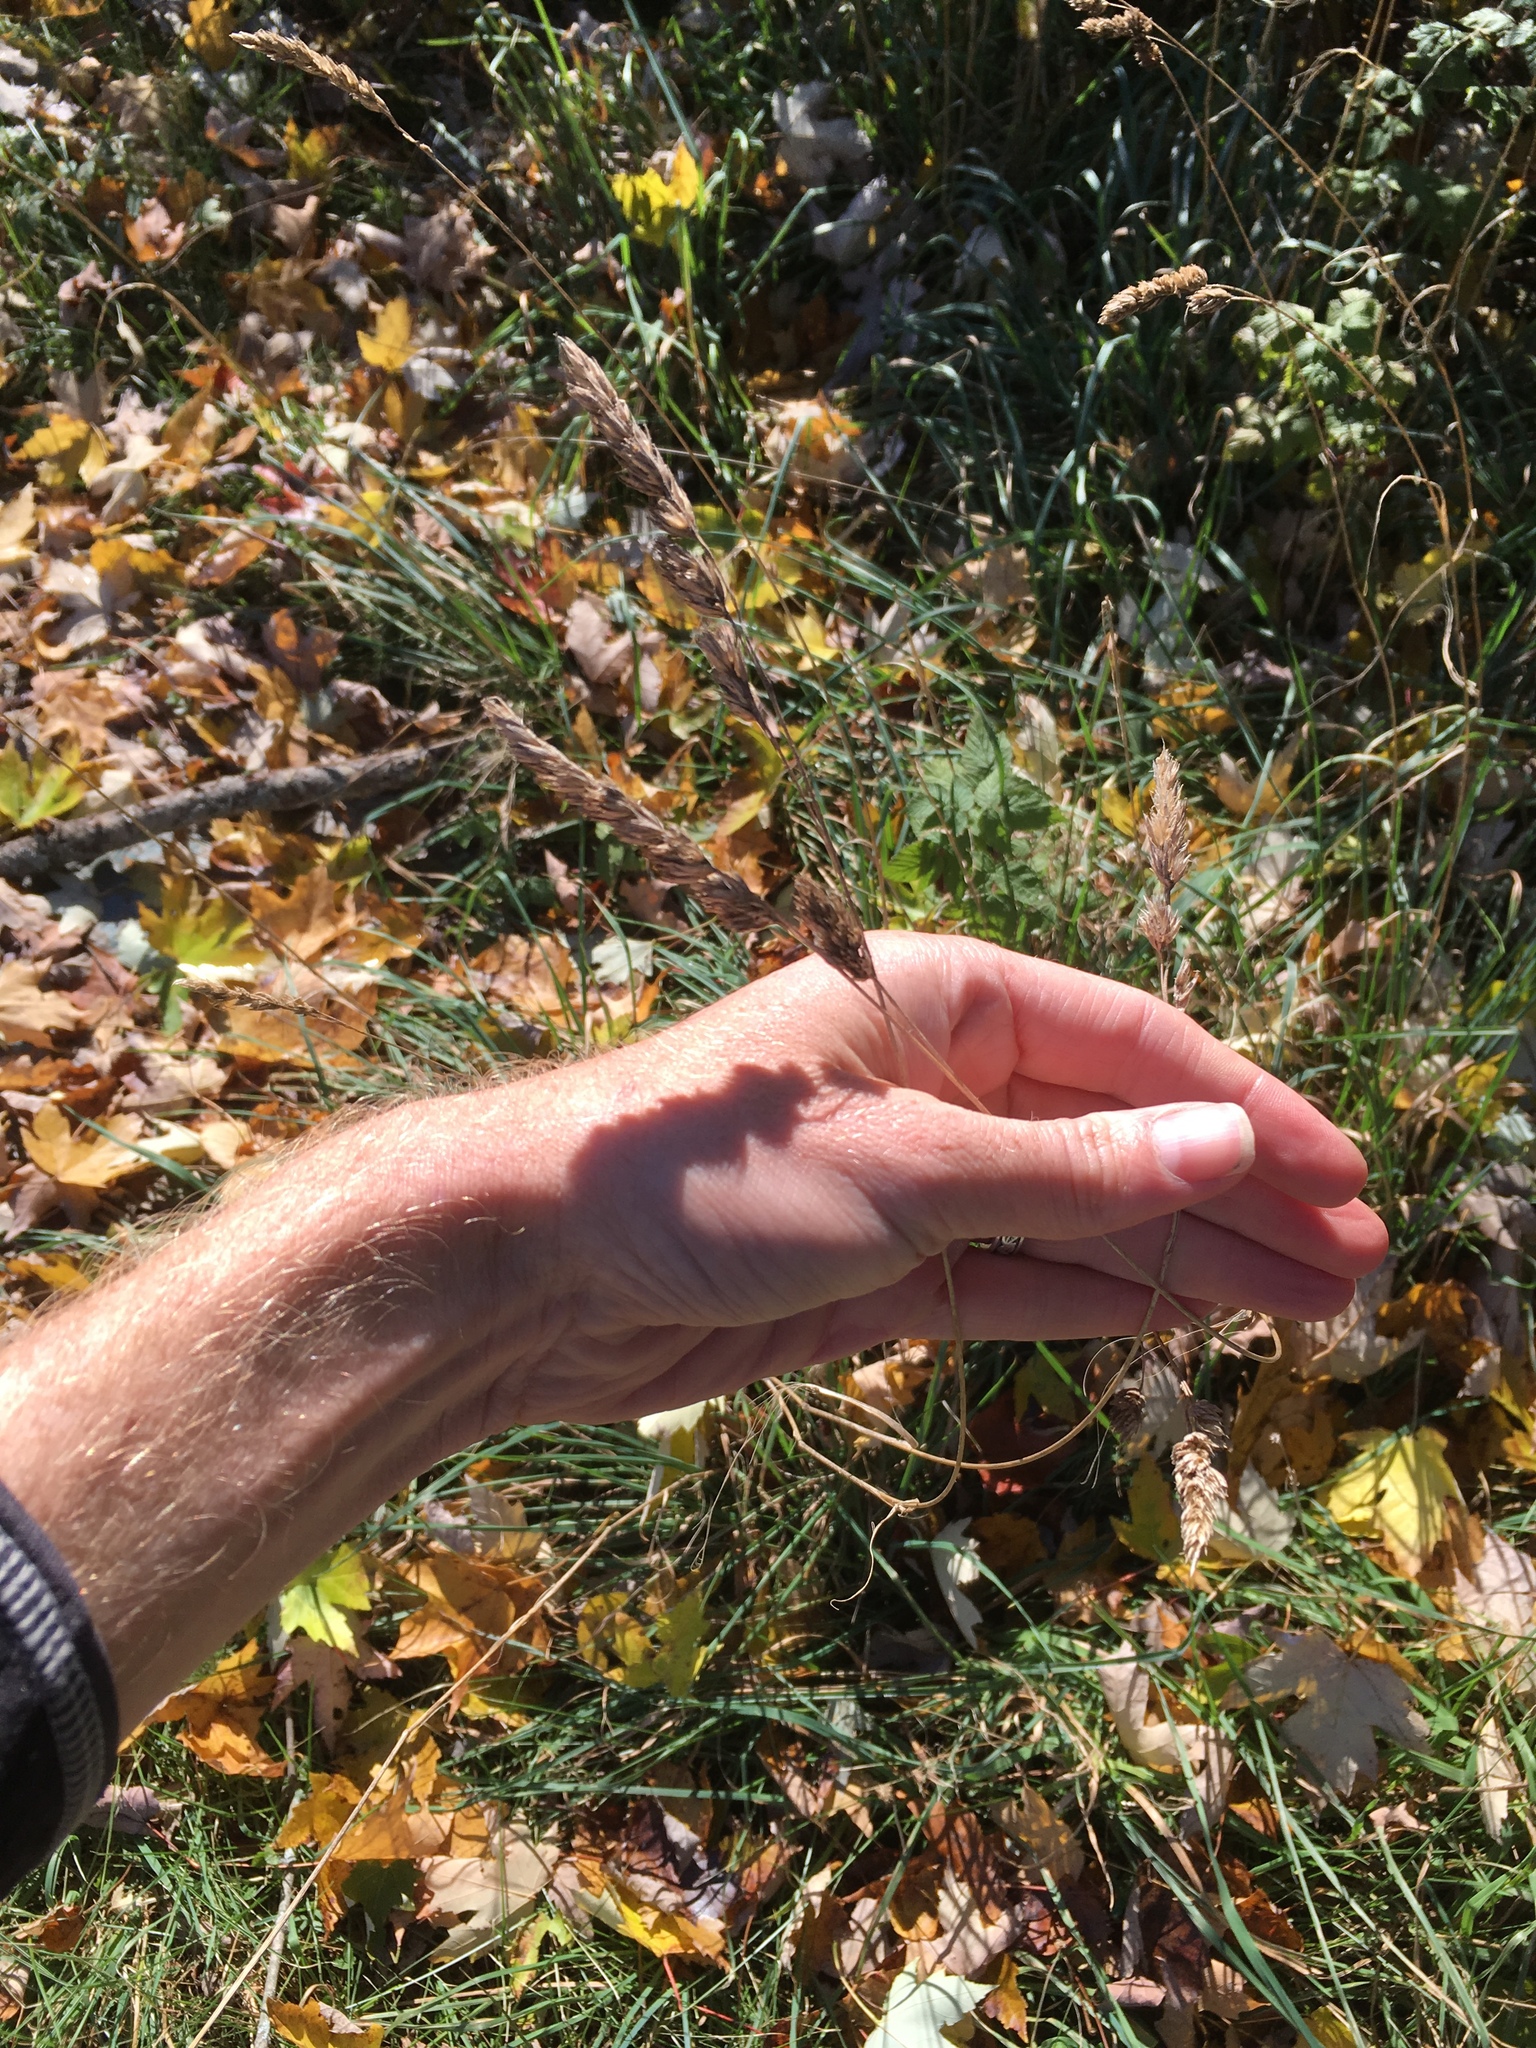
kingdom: Plantae
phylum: Tracheophyta
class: Liliopsida
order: Poales
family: Poaceae
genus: Dactylis
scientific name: Dactylis glomerata
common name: Orchardgrass
